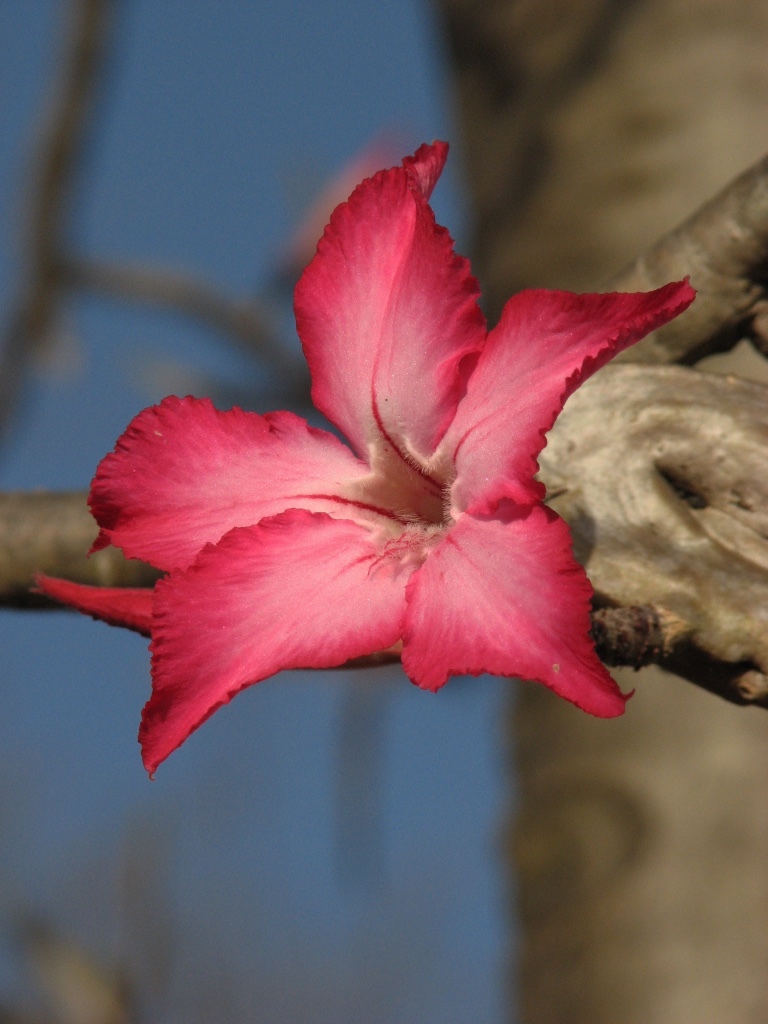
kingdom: Plantae
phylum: Tracheophyta
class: Magnoliopsida
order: Gentianales
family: Apocynaceae
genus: Adenium
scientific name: Adenium obesum
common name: Desert-rose
